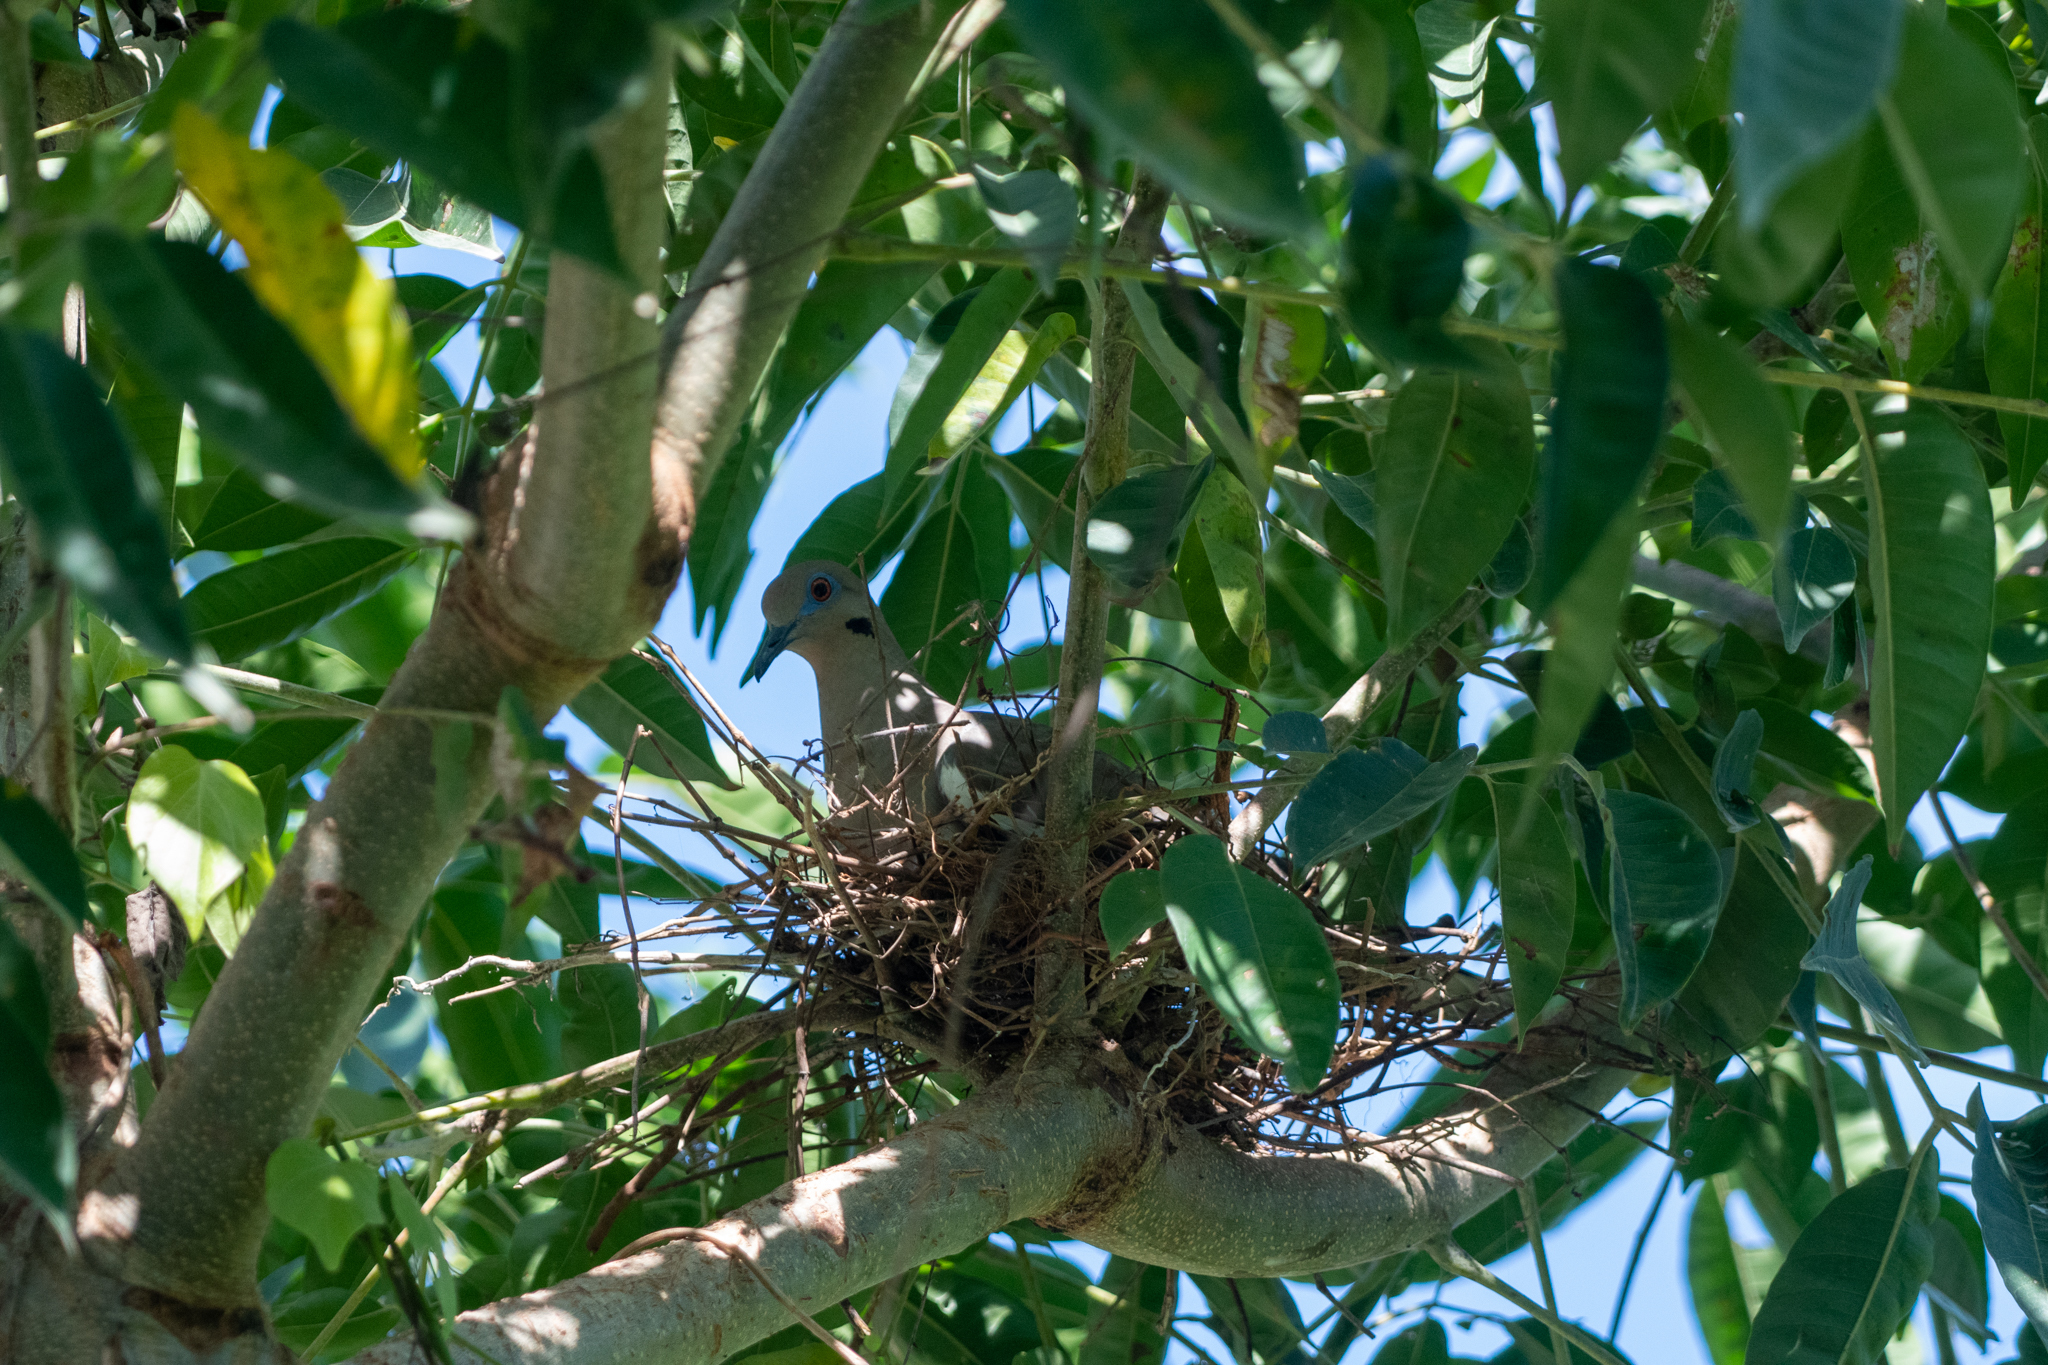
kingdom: Animalia
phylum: Chordata
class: Aves
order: Columbiformes
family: Columbidae
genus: Zenaida
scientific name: Zenaida asiatica
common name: White-winged dove
